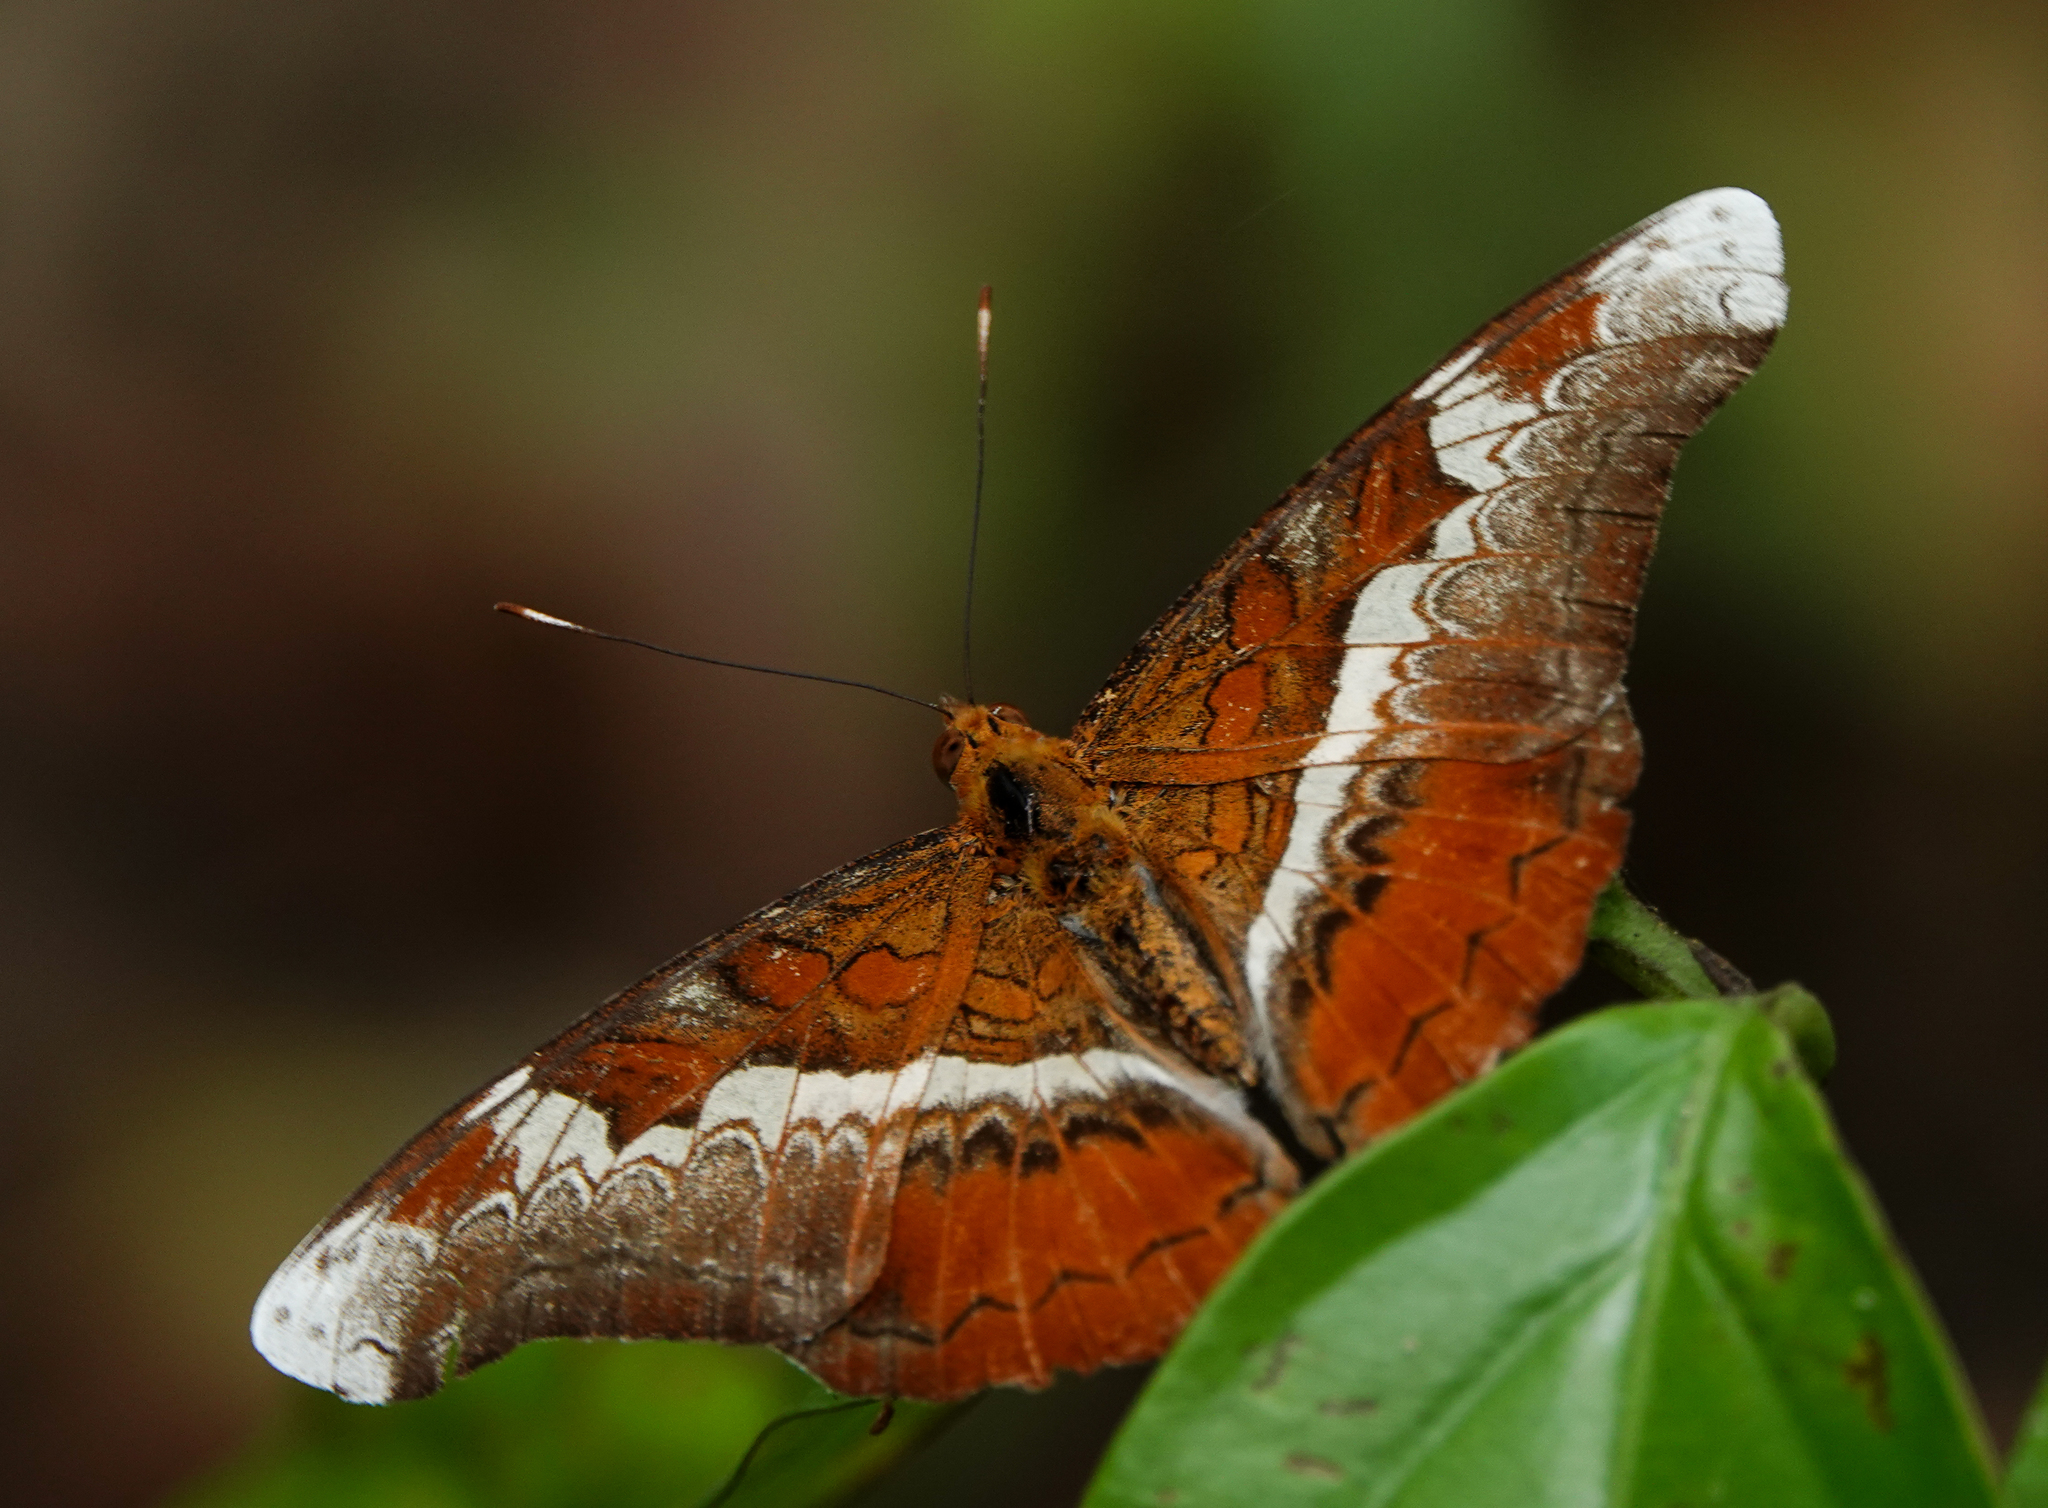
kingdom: Animalia
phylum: Arthropoda
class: Insecta
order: Lepidoptera
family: Nymphalidae
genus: Lebadea
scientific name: Lebadea martha
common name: Knight
